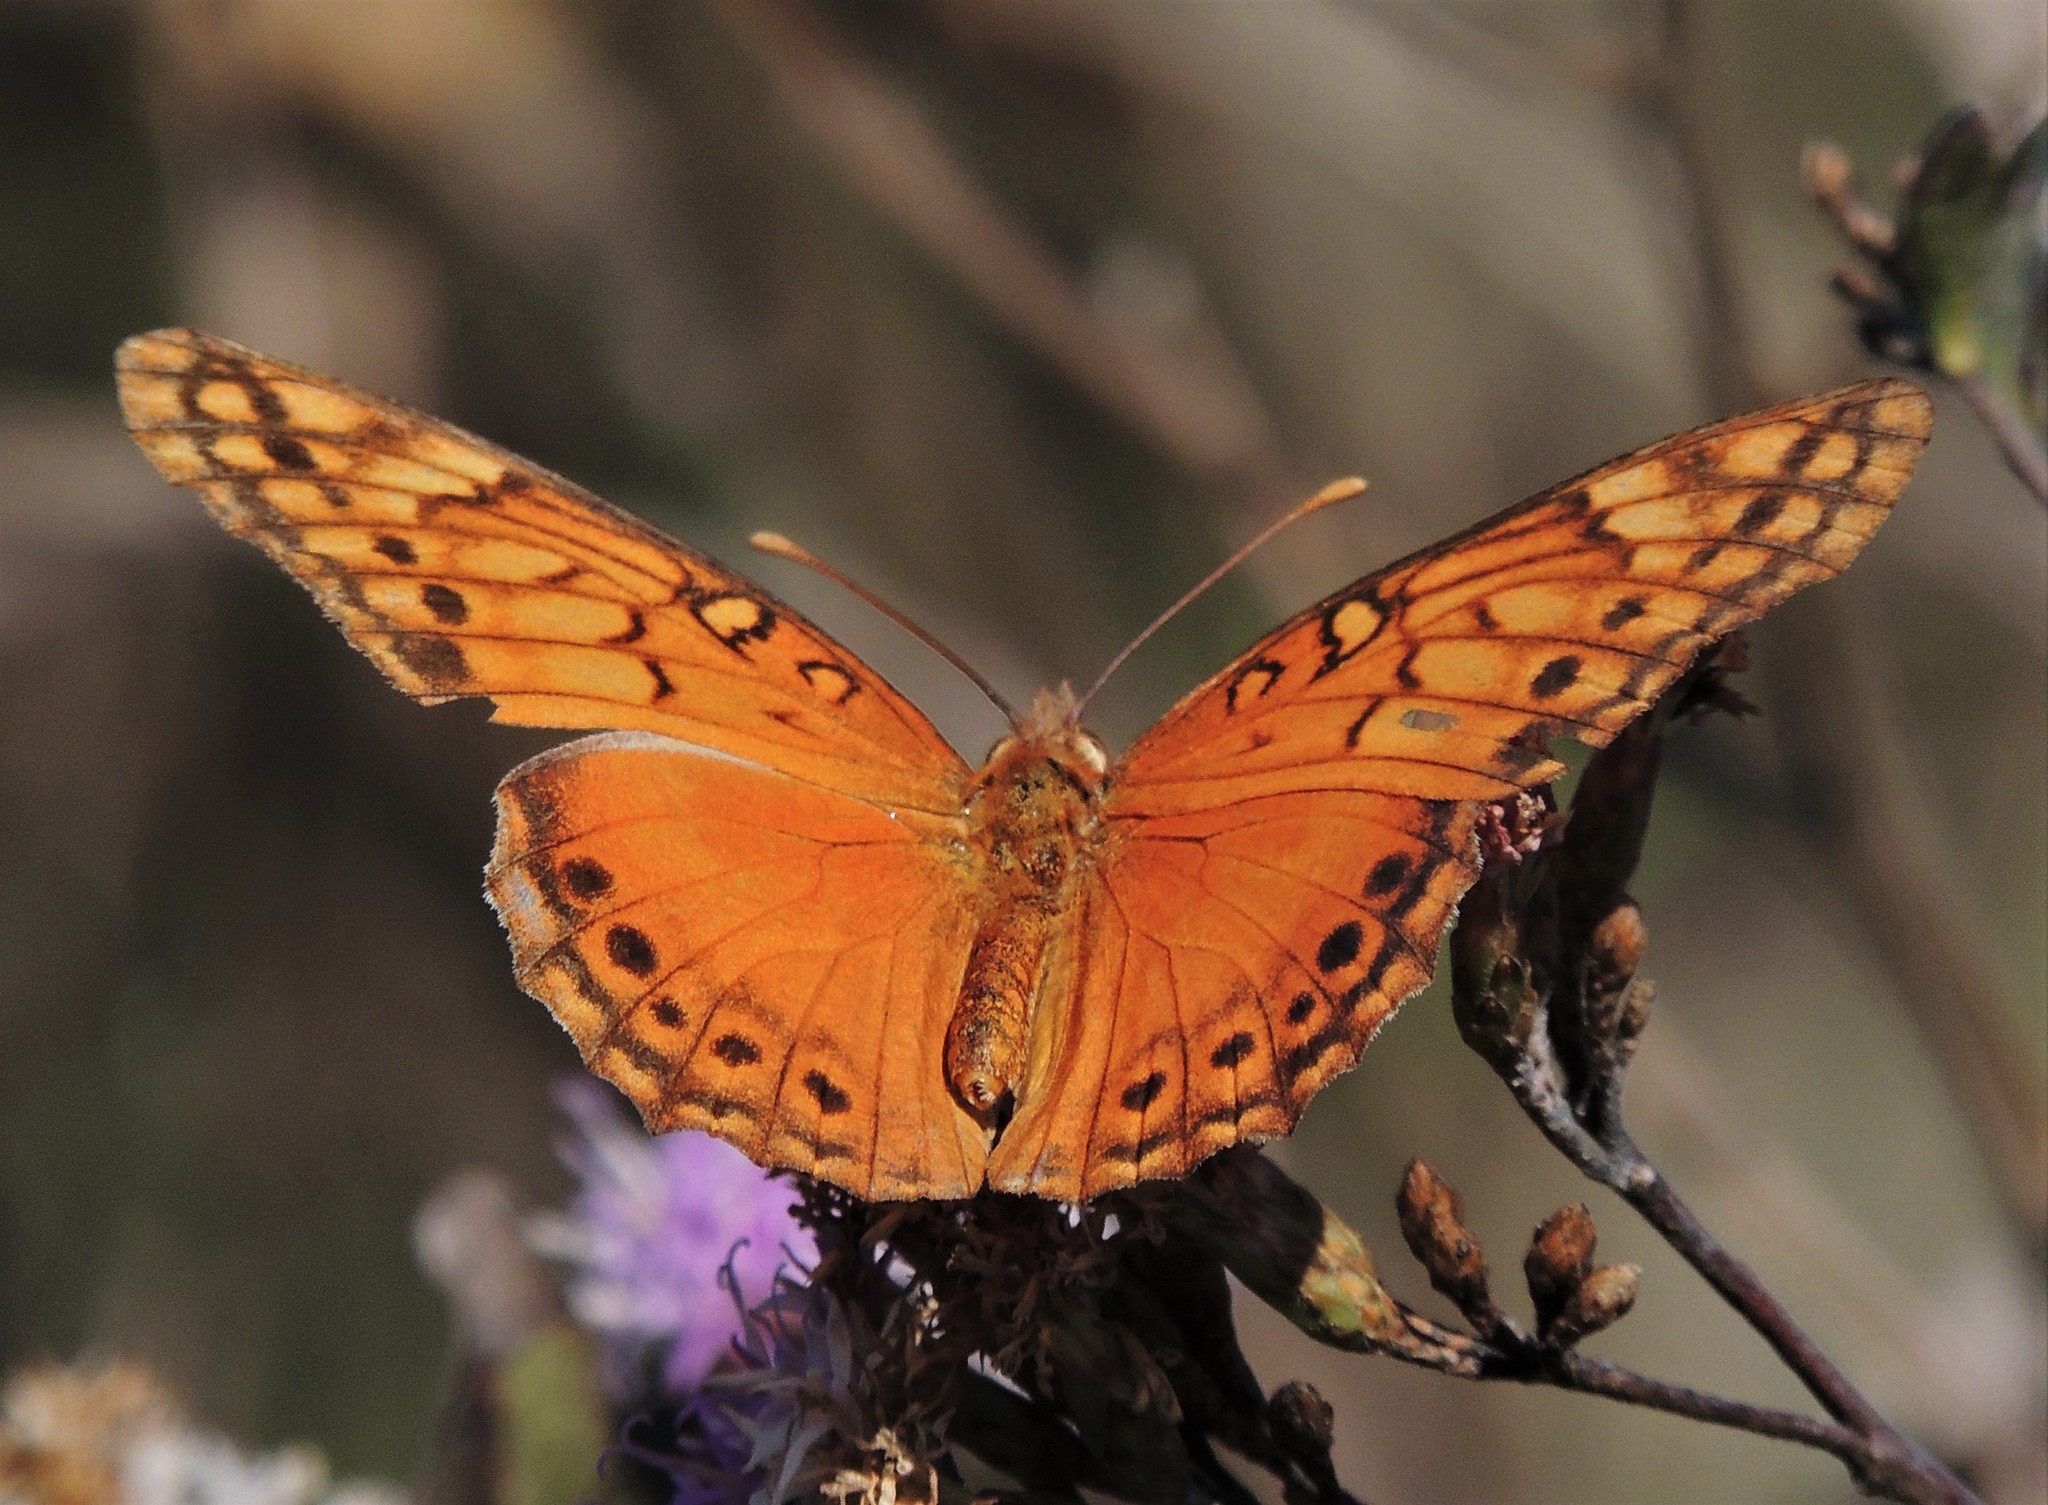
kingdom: Animalia
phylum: Arthropoda
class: Insecta
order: Lepidoptera
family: Nymphalidae
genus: Euptoieta
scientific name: Euptoieta hegesia
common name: Mexican fritillary
